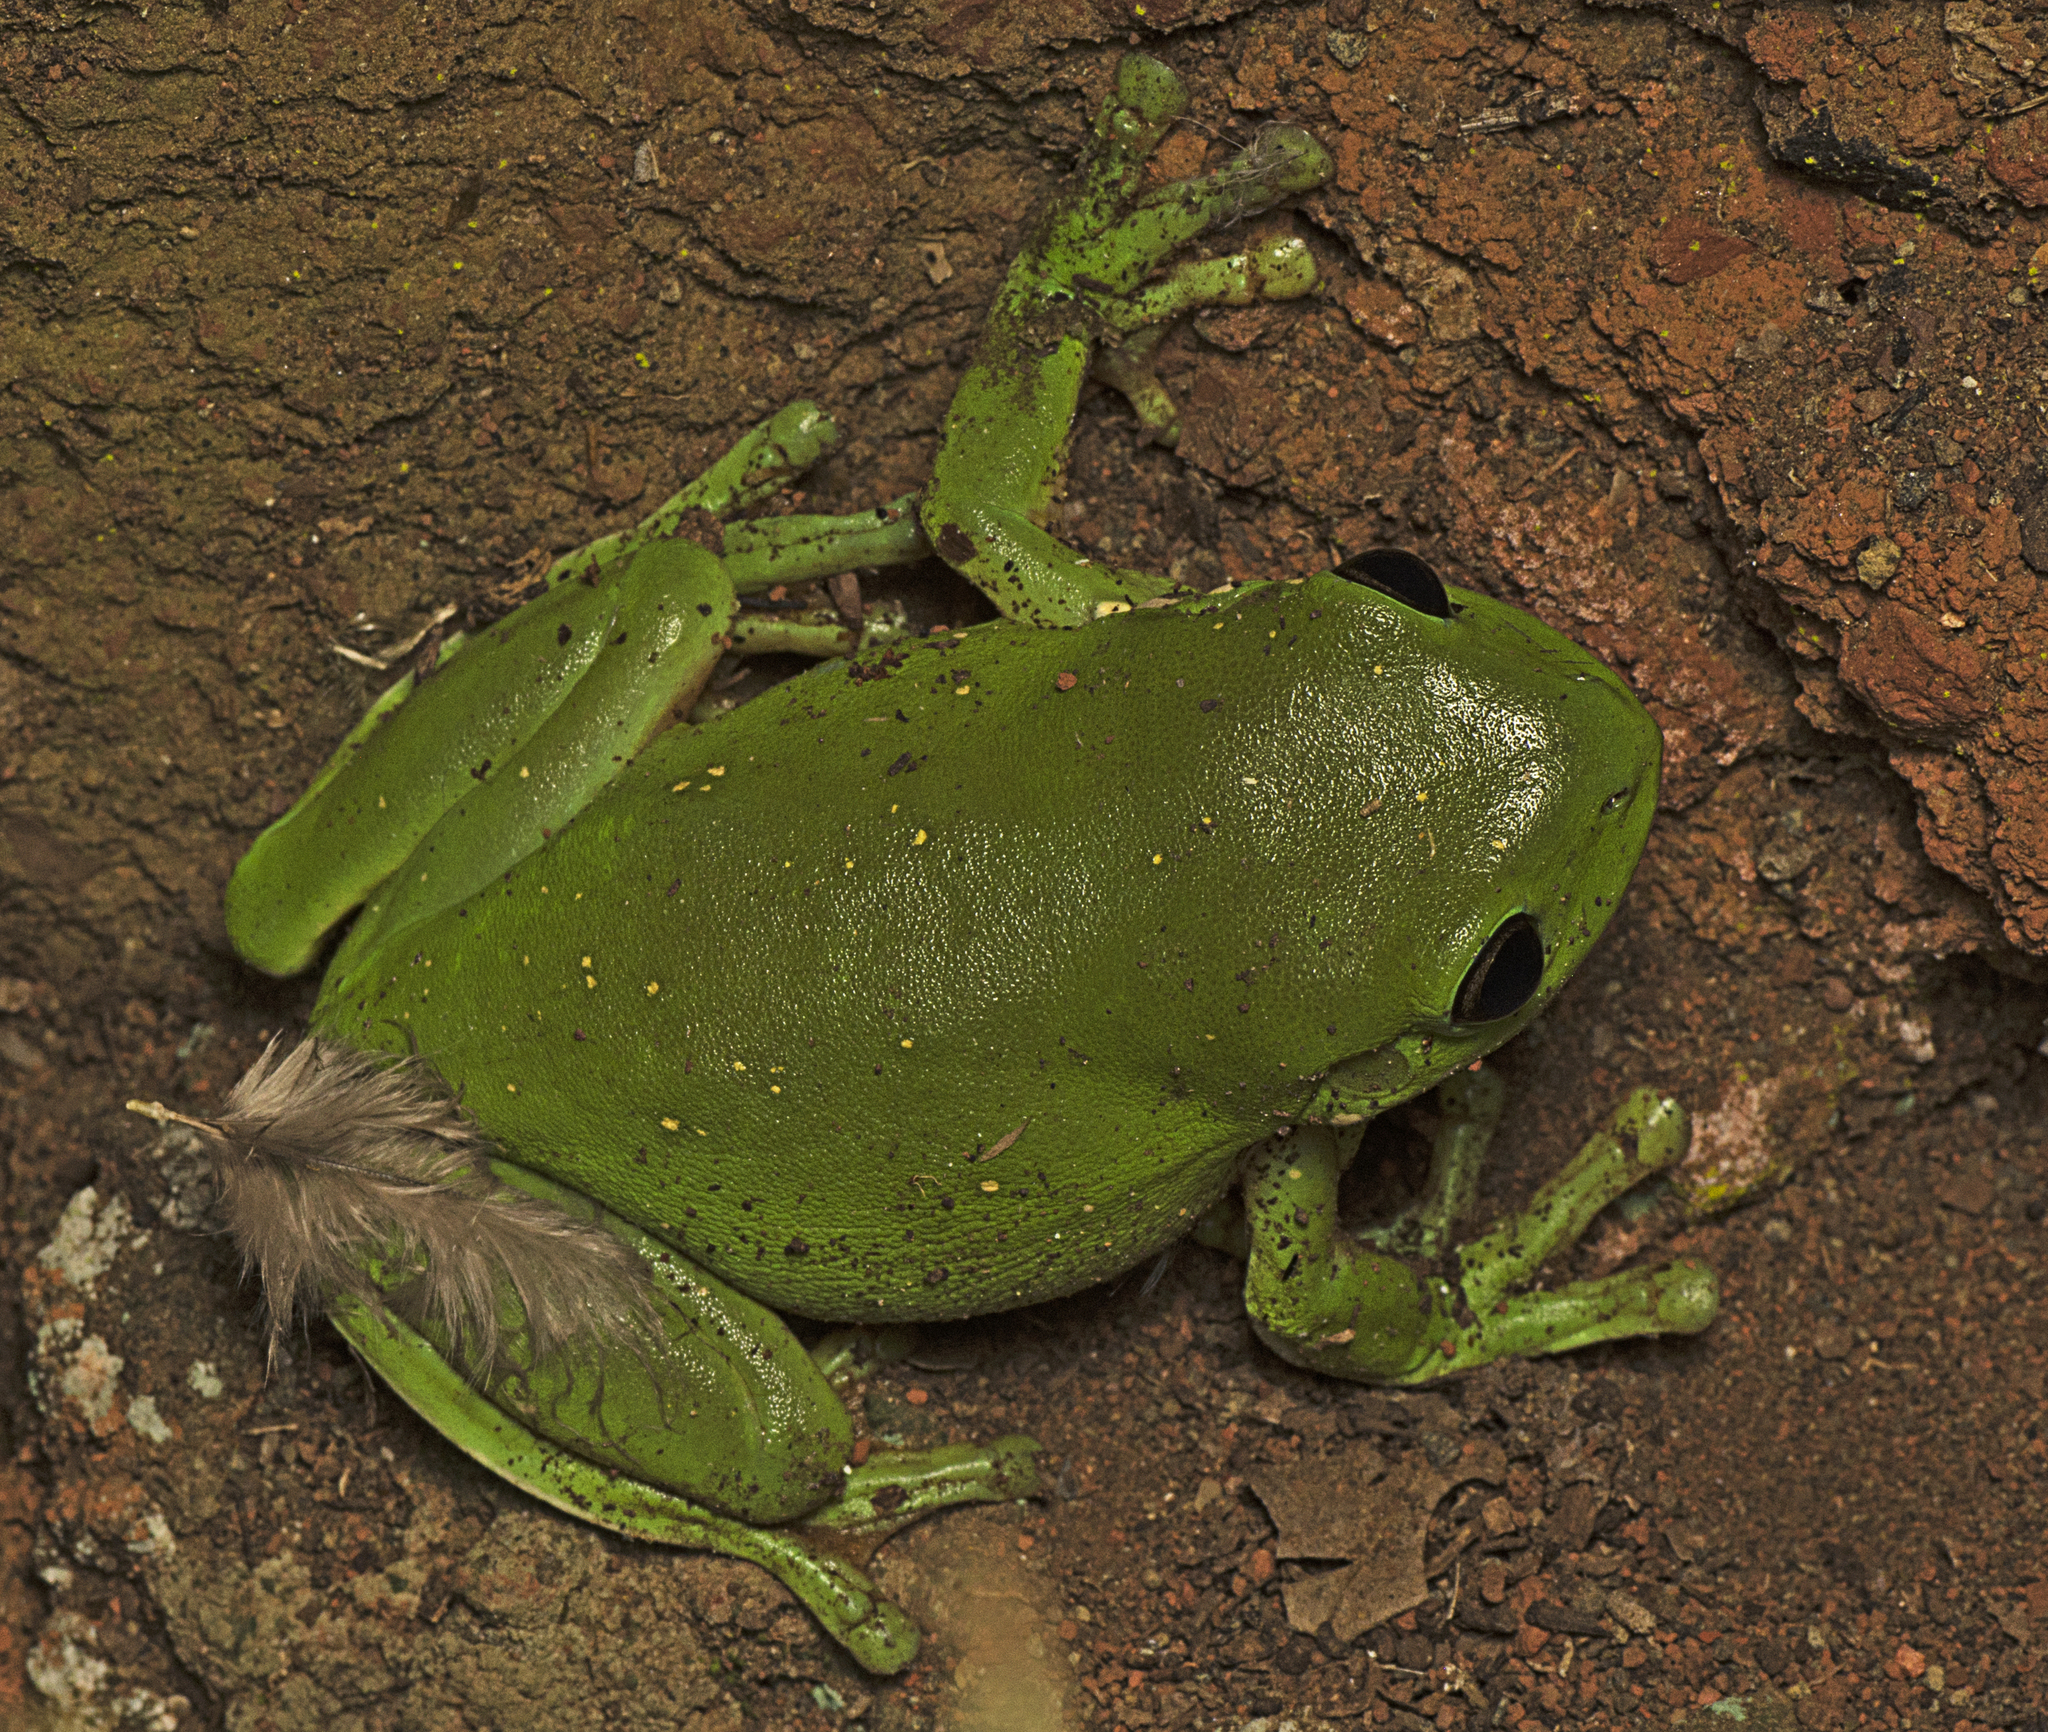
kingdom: Animalia
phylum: Chordata
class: Amphibia
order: Anura
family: Pelodryadidae
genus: Ranoidea
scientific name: Ranoidea caerulea
